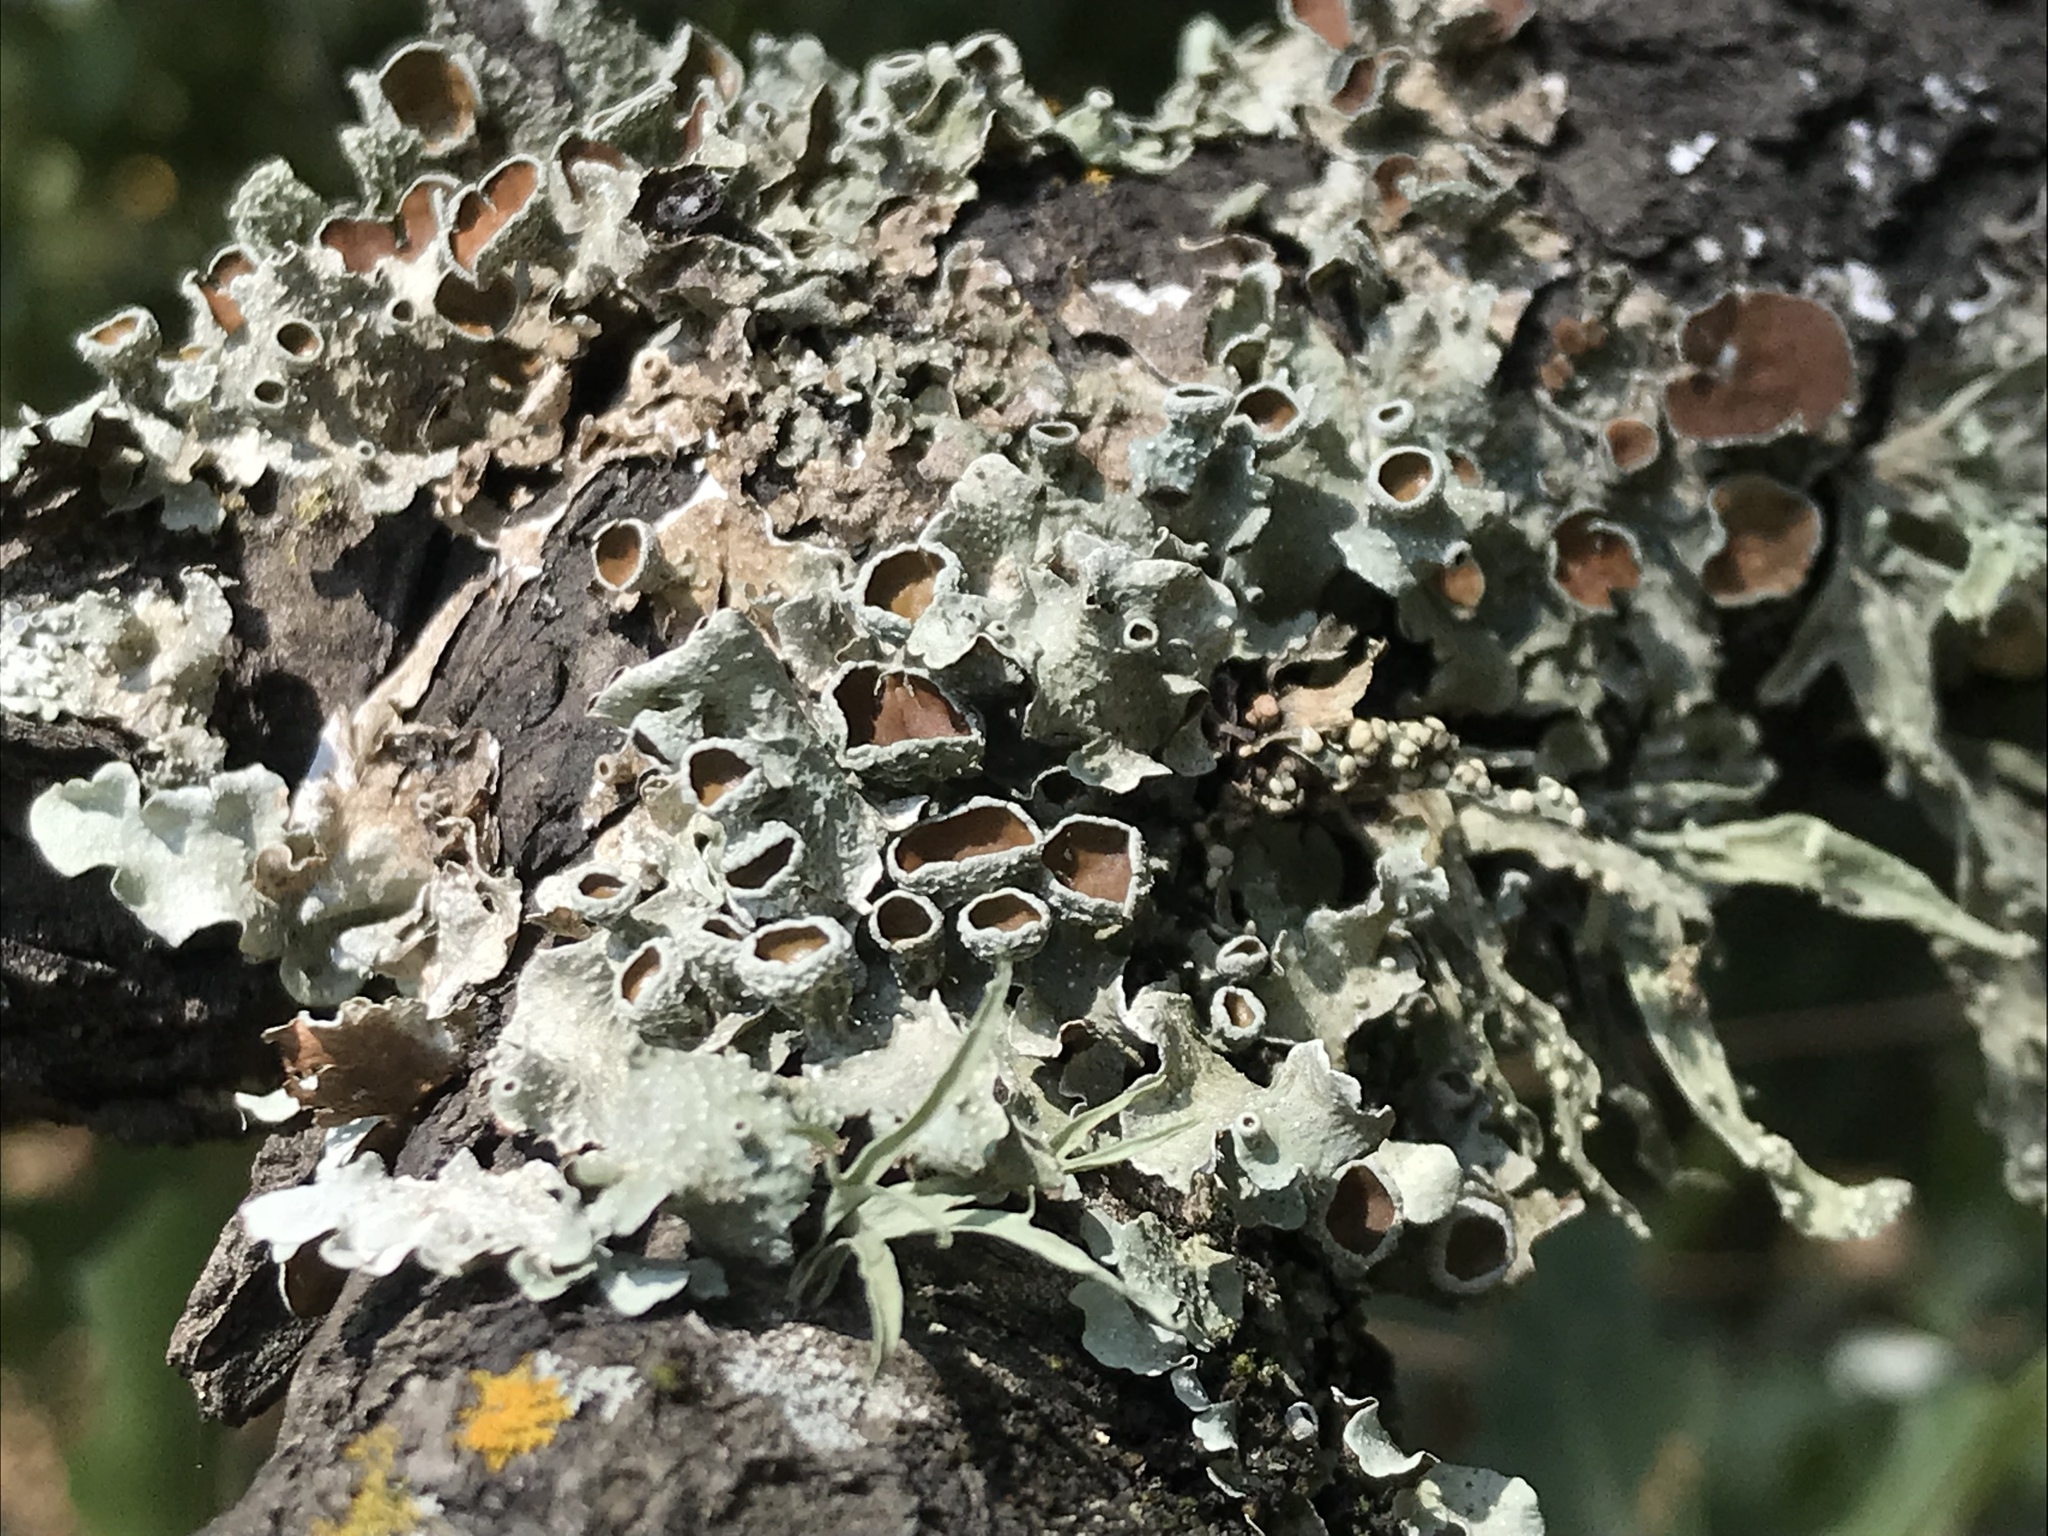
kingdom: Fungi
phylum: Ascomycota
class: Lecanoromycetes
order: Lecanorales
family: Parmeliaceae
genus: Punctelia
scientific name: Punctelia bolliana
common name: Eastern speckled shield lichen
